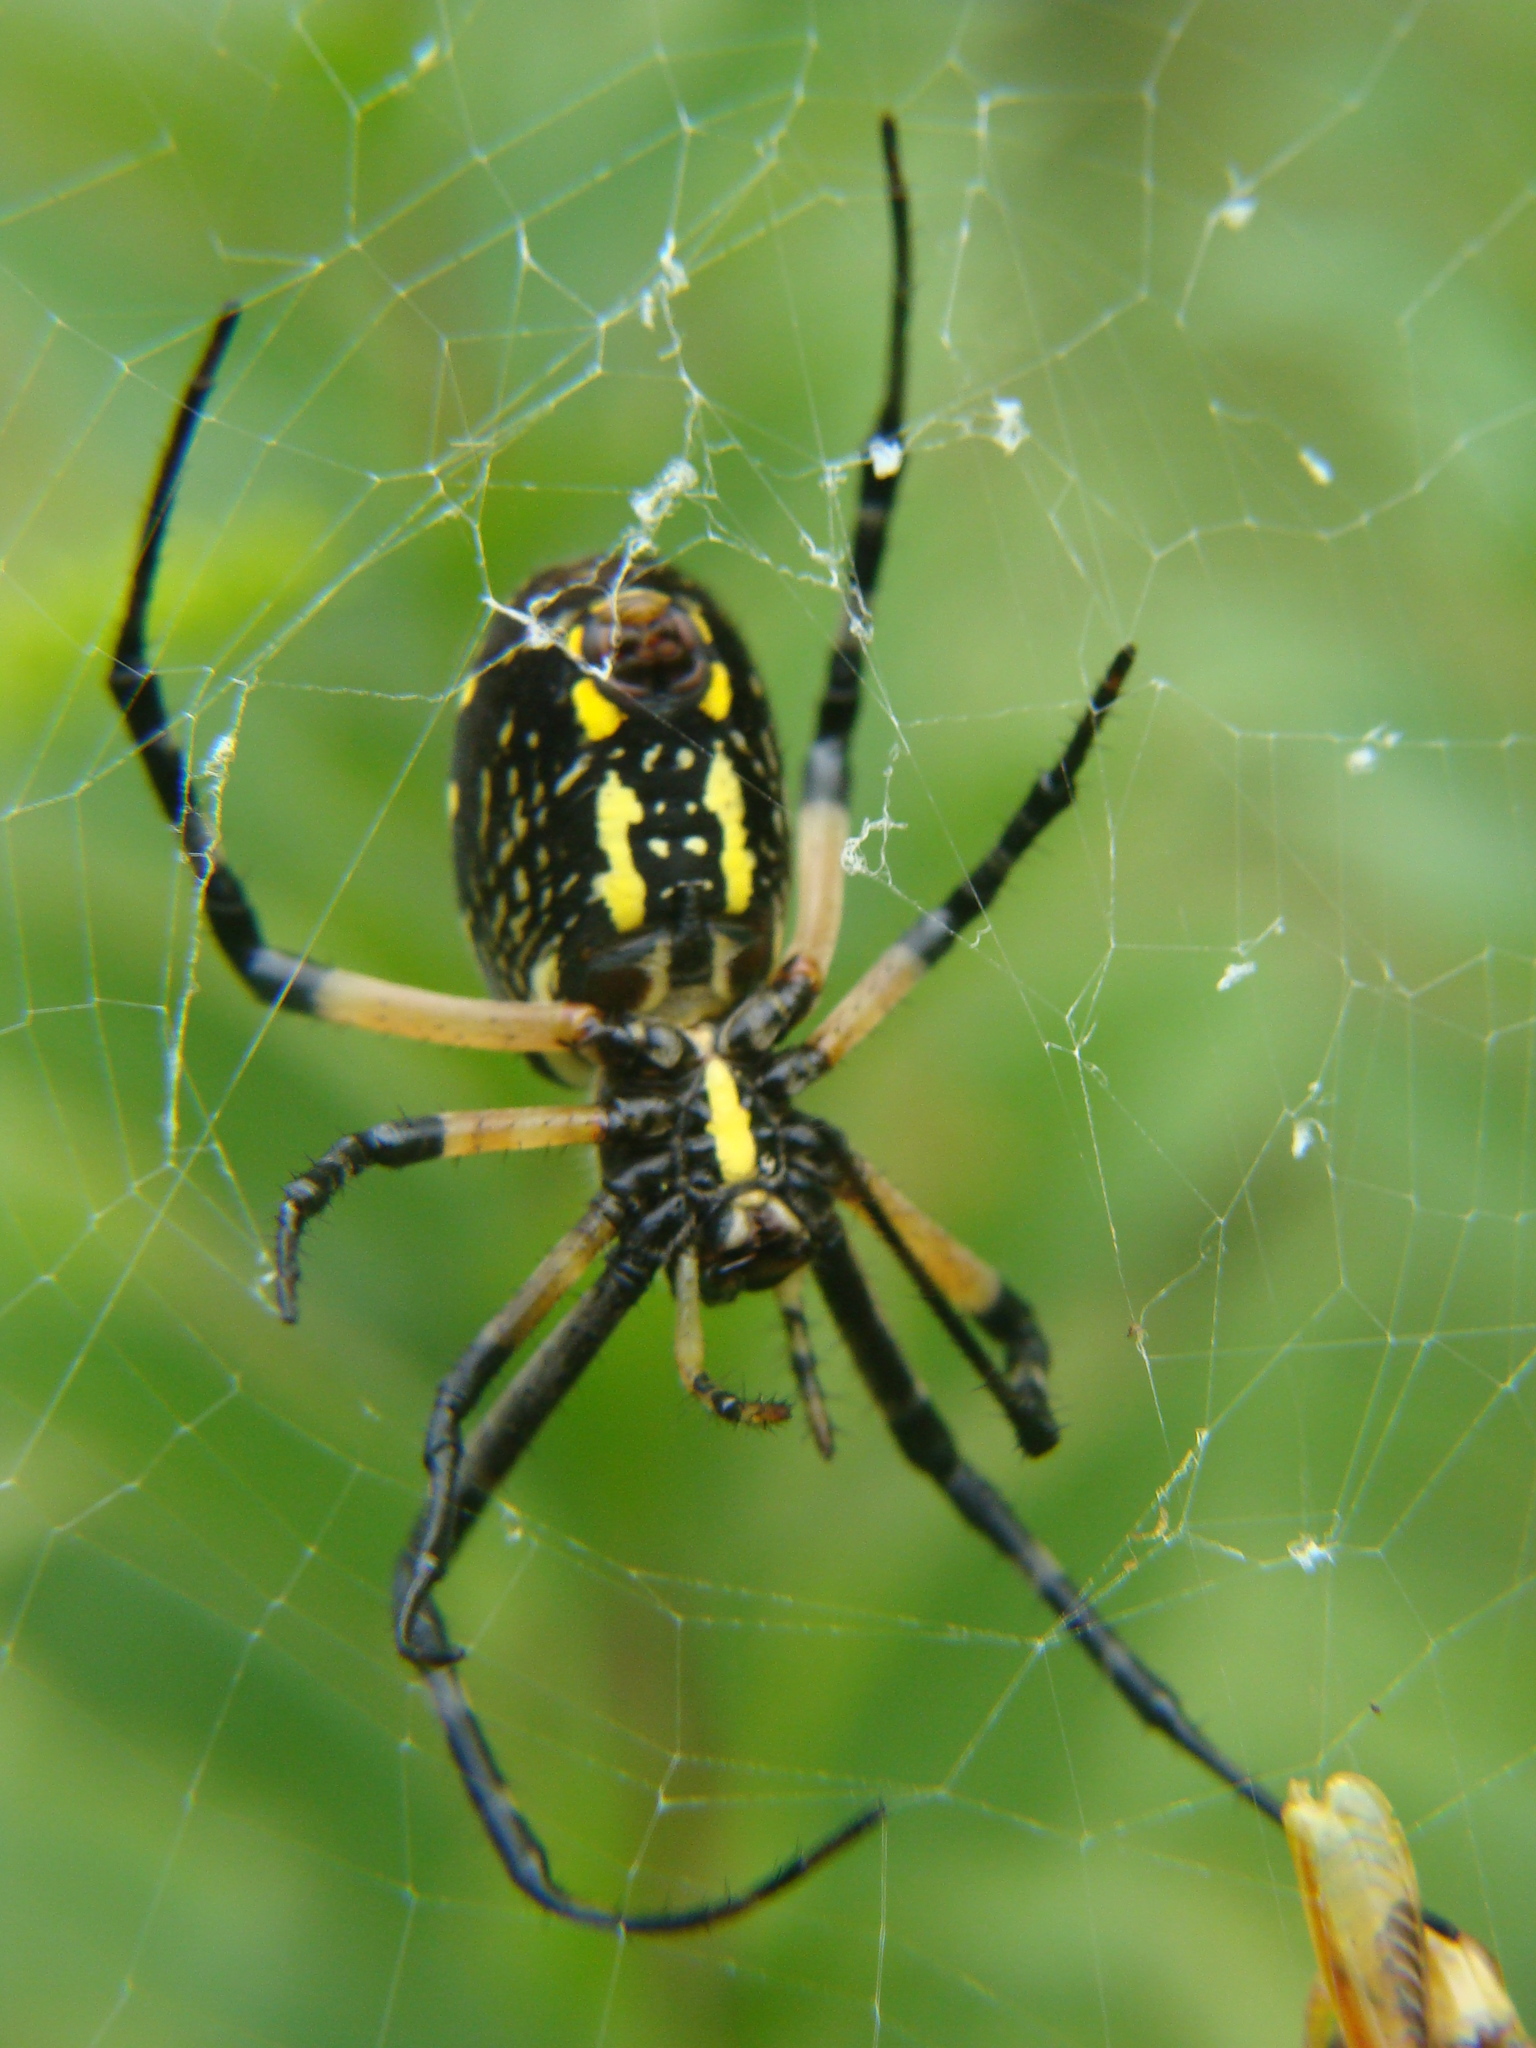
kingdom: Animalia
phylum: Arthropoda
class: Arachnida
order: Araneae
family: Araneidae
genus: Argiope
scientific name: Argiope aurantia
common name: Orb weavers
